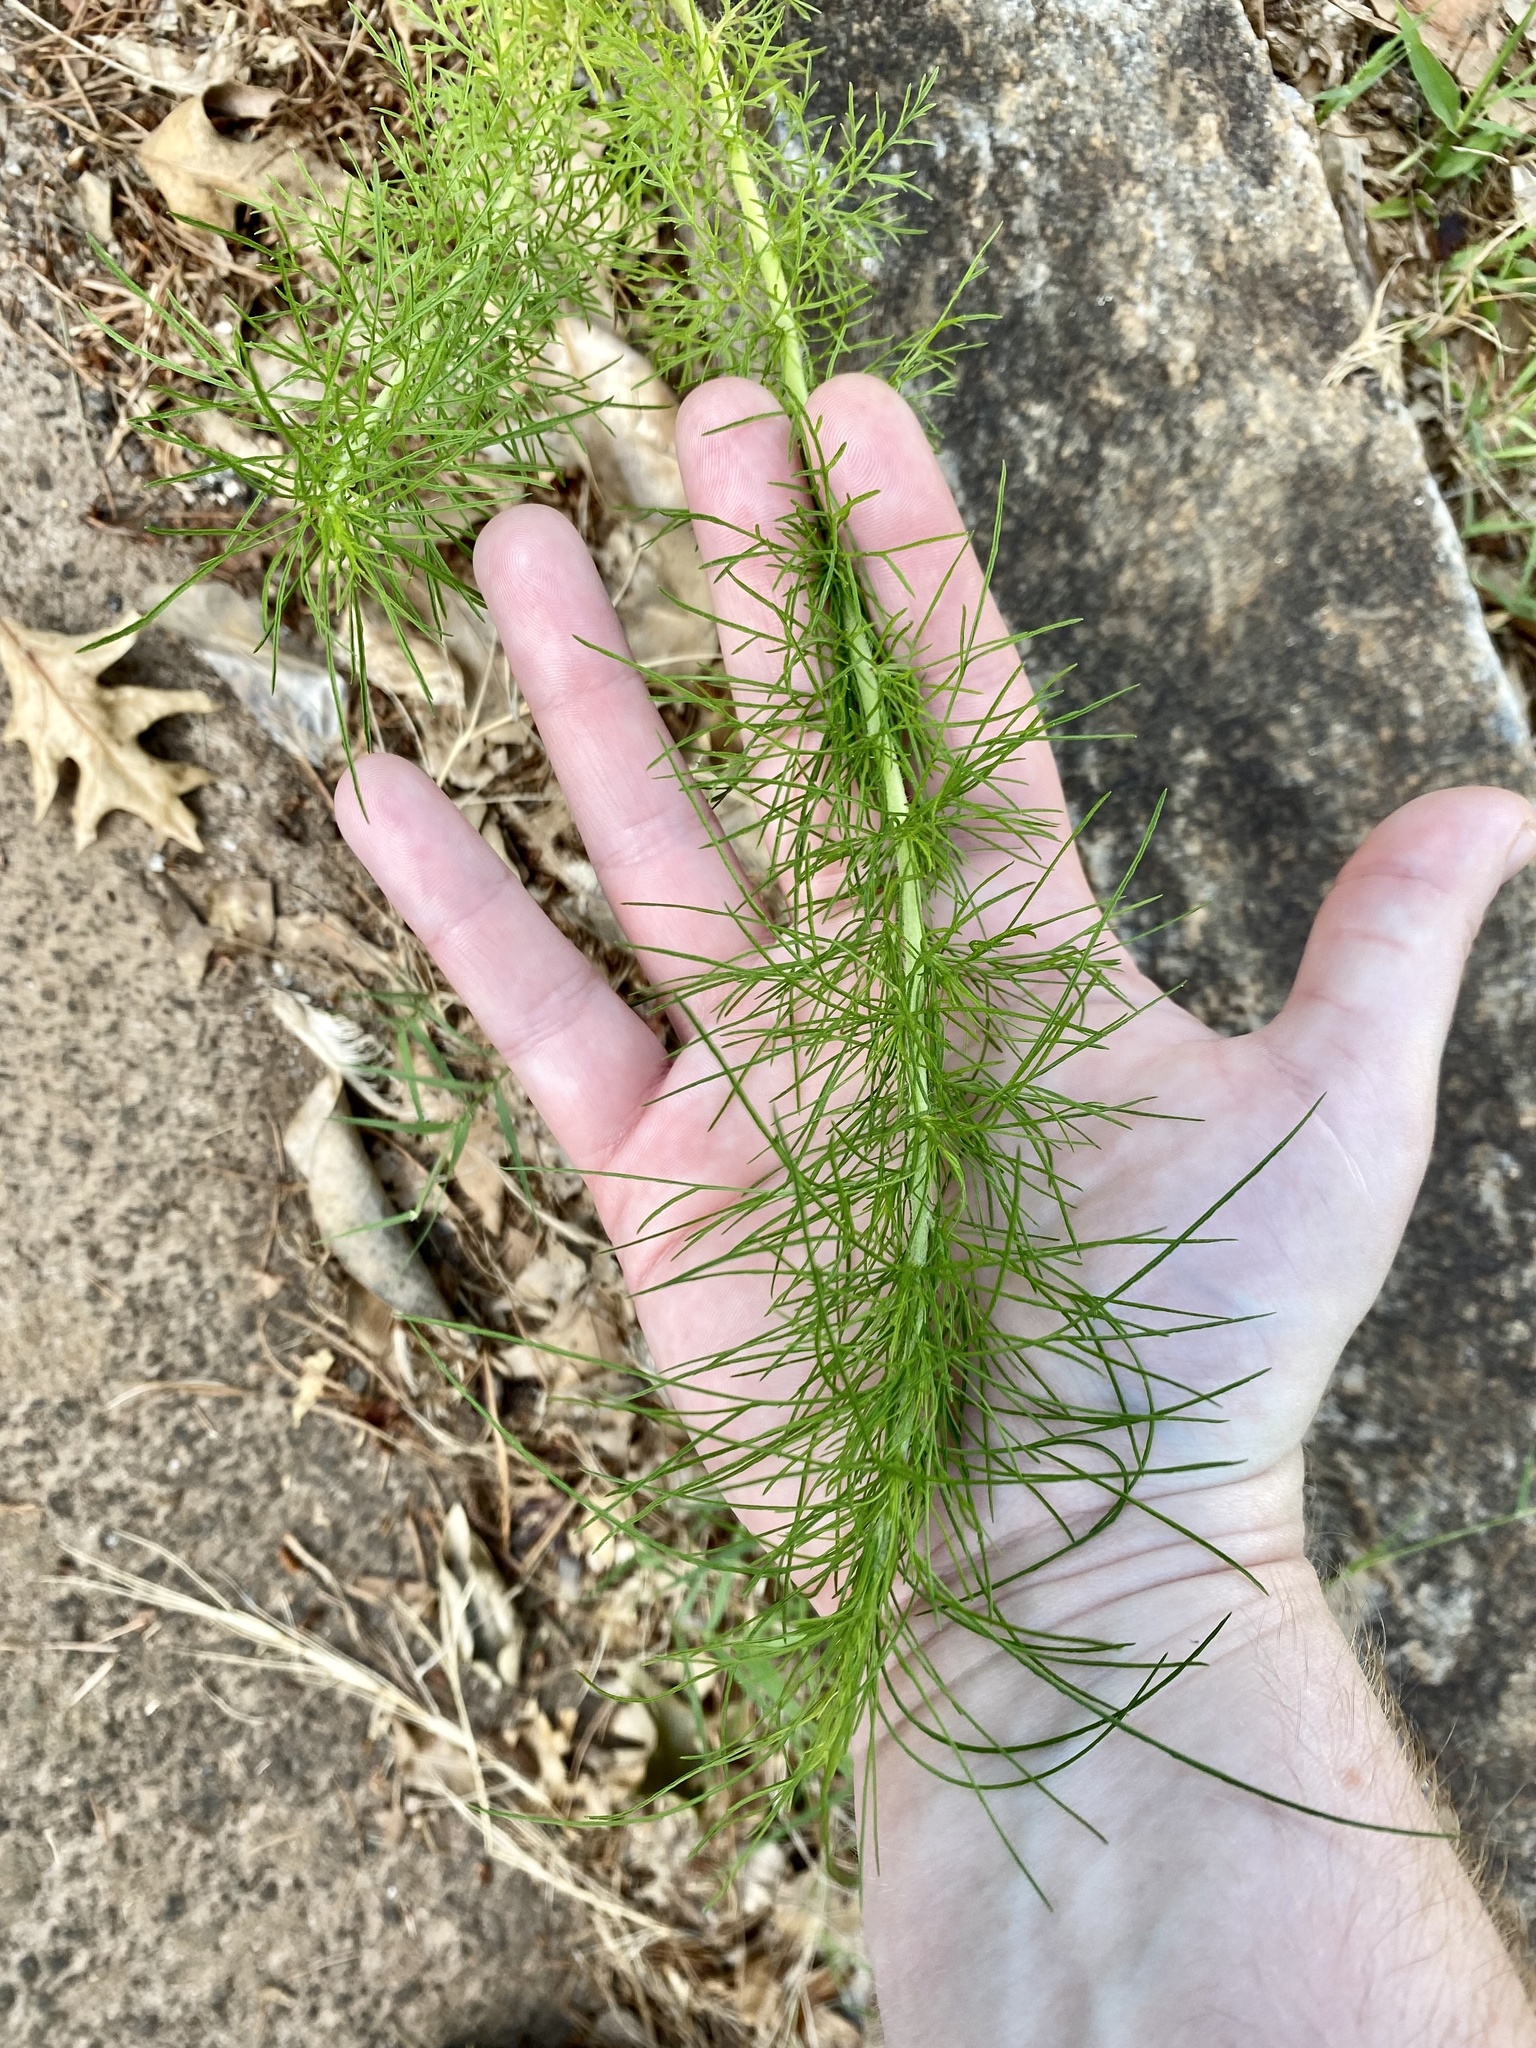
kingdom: Plantae
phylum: Tracheophyta
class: Magnoliopsida
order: Asterales
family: Asteraceae
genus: Eupatorium
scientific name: Eupatorium capillifolium
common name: Dog-fennel
